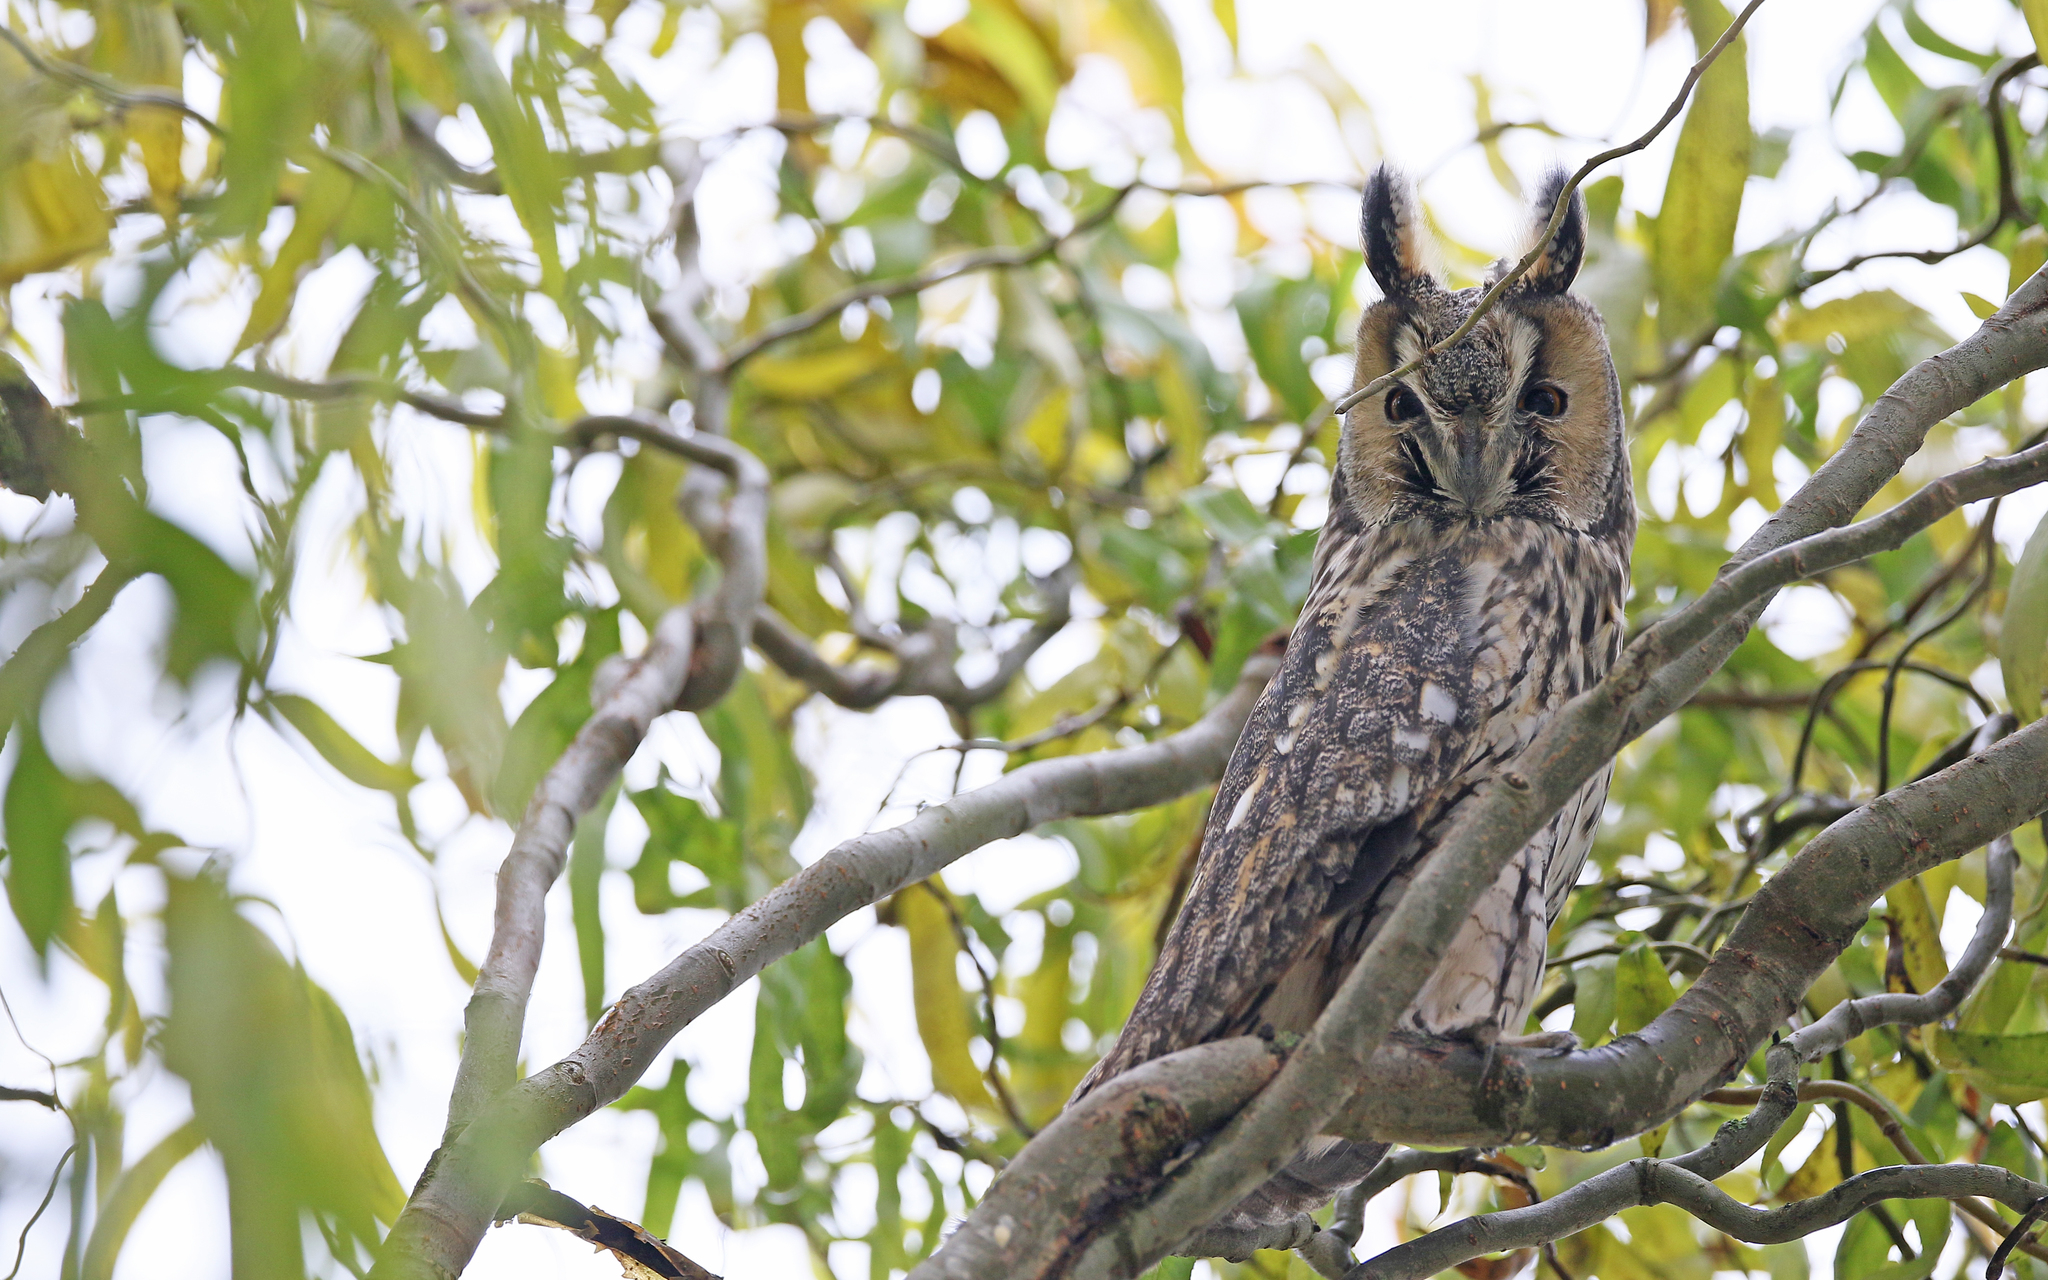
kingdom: Animalia
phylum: Chordata
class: Aves
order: Strigiformes
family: Strigidae
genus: Asio
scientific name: Asio otus
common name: Long-eared owl
